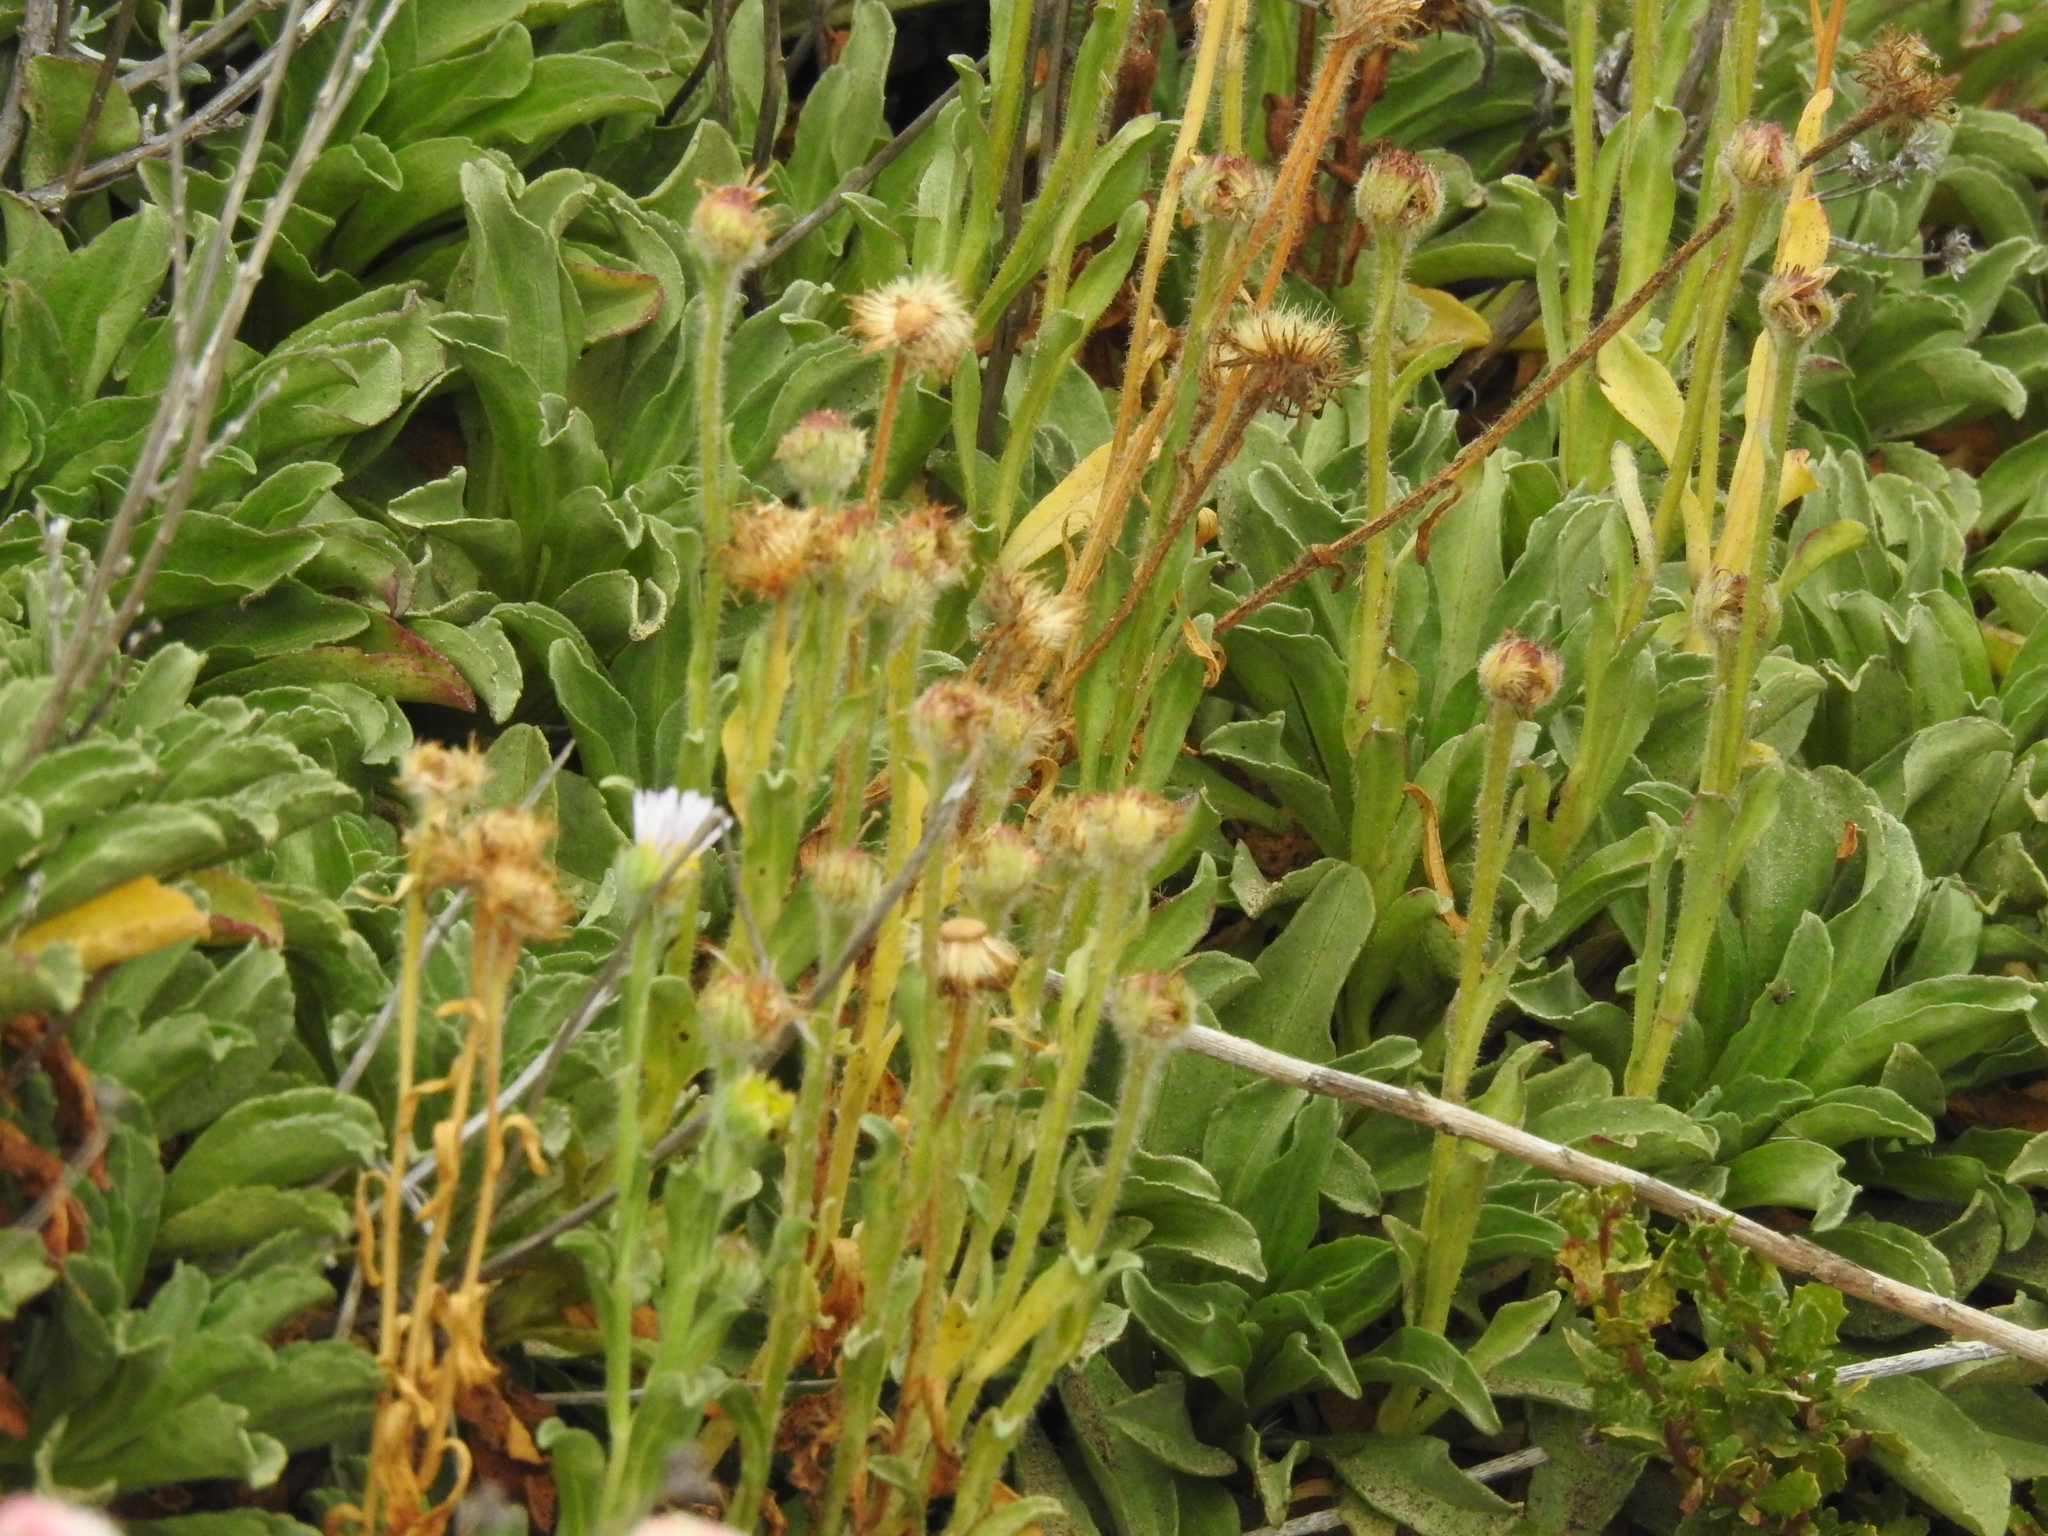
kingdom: Plantae
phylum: Tracheophyta
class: Magnoliopsida
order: Asterales
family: Asteraceae
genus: Erigeron
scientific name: Erigeron glaucus
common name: Seaside daisy
